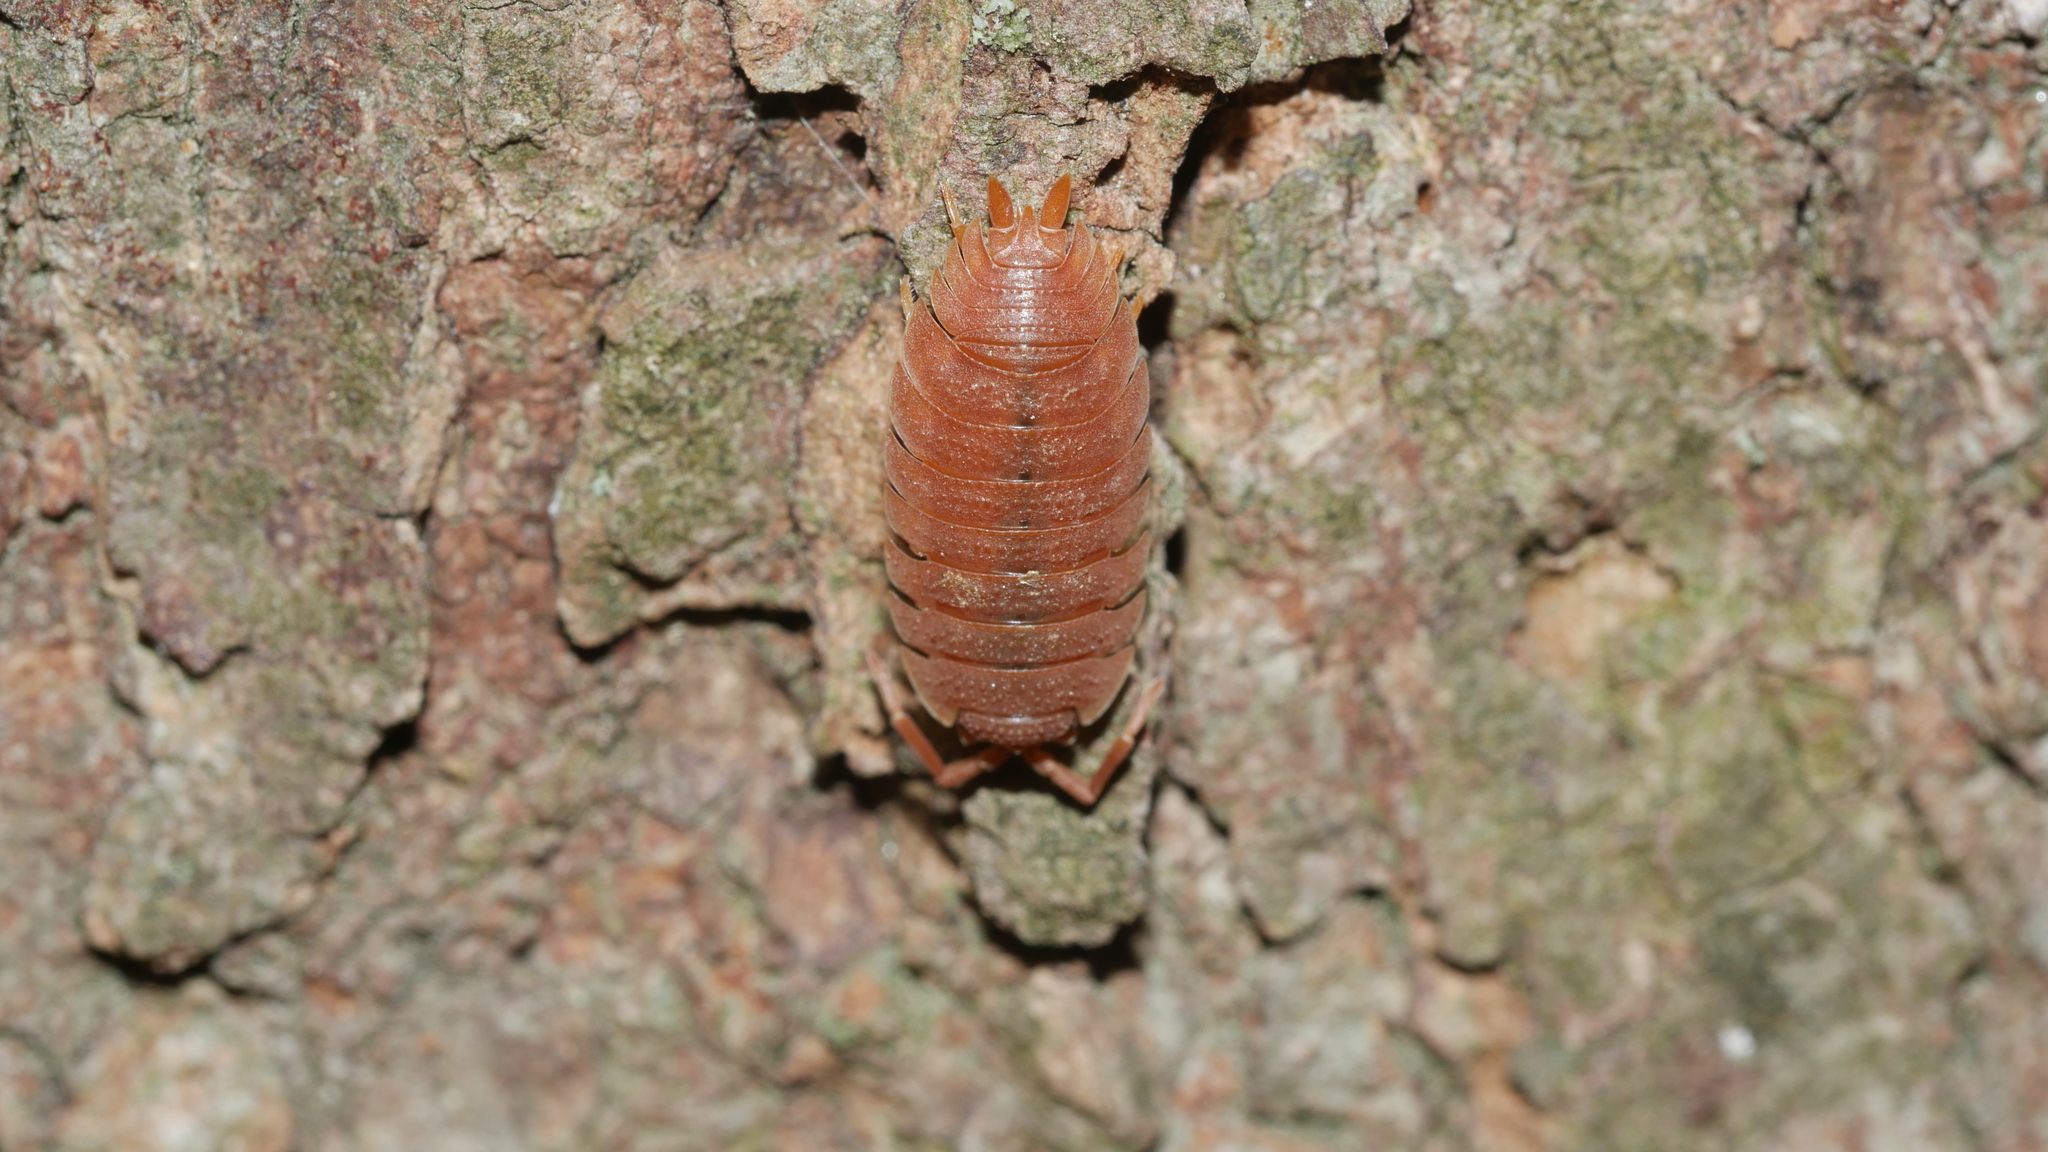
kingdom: Animalia
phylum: Arthropoda
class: Malacostraca
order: Isopoda
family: Porcellionidae
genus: Porcellio
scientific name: Porcellio scaber
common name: Common rough woodlouse
